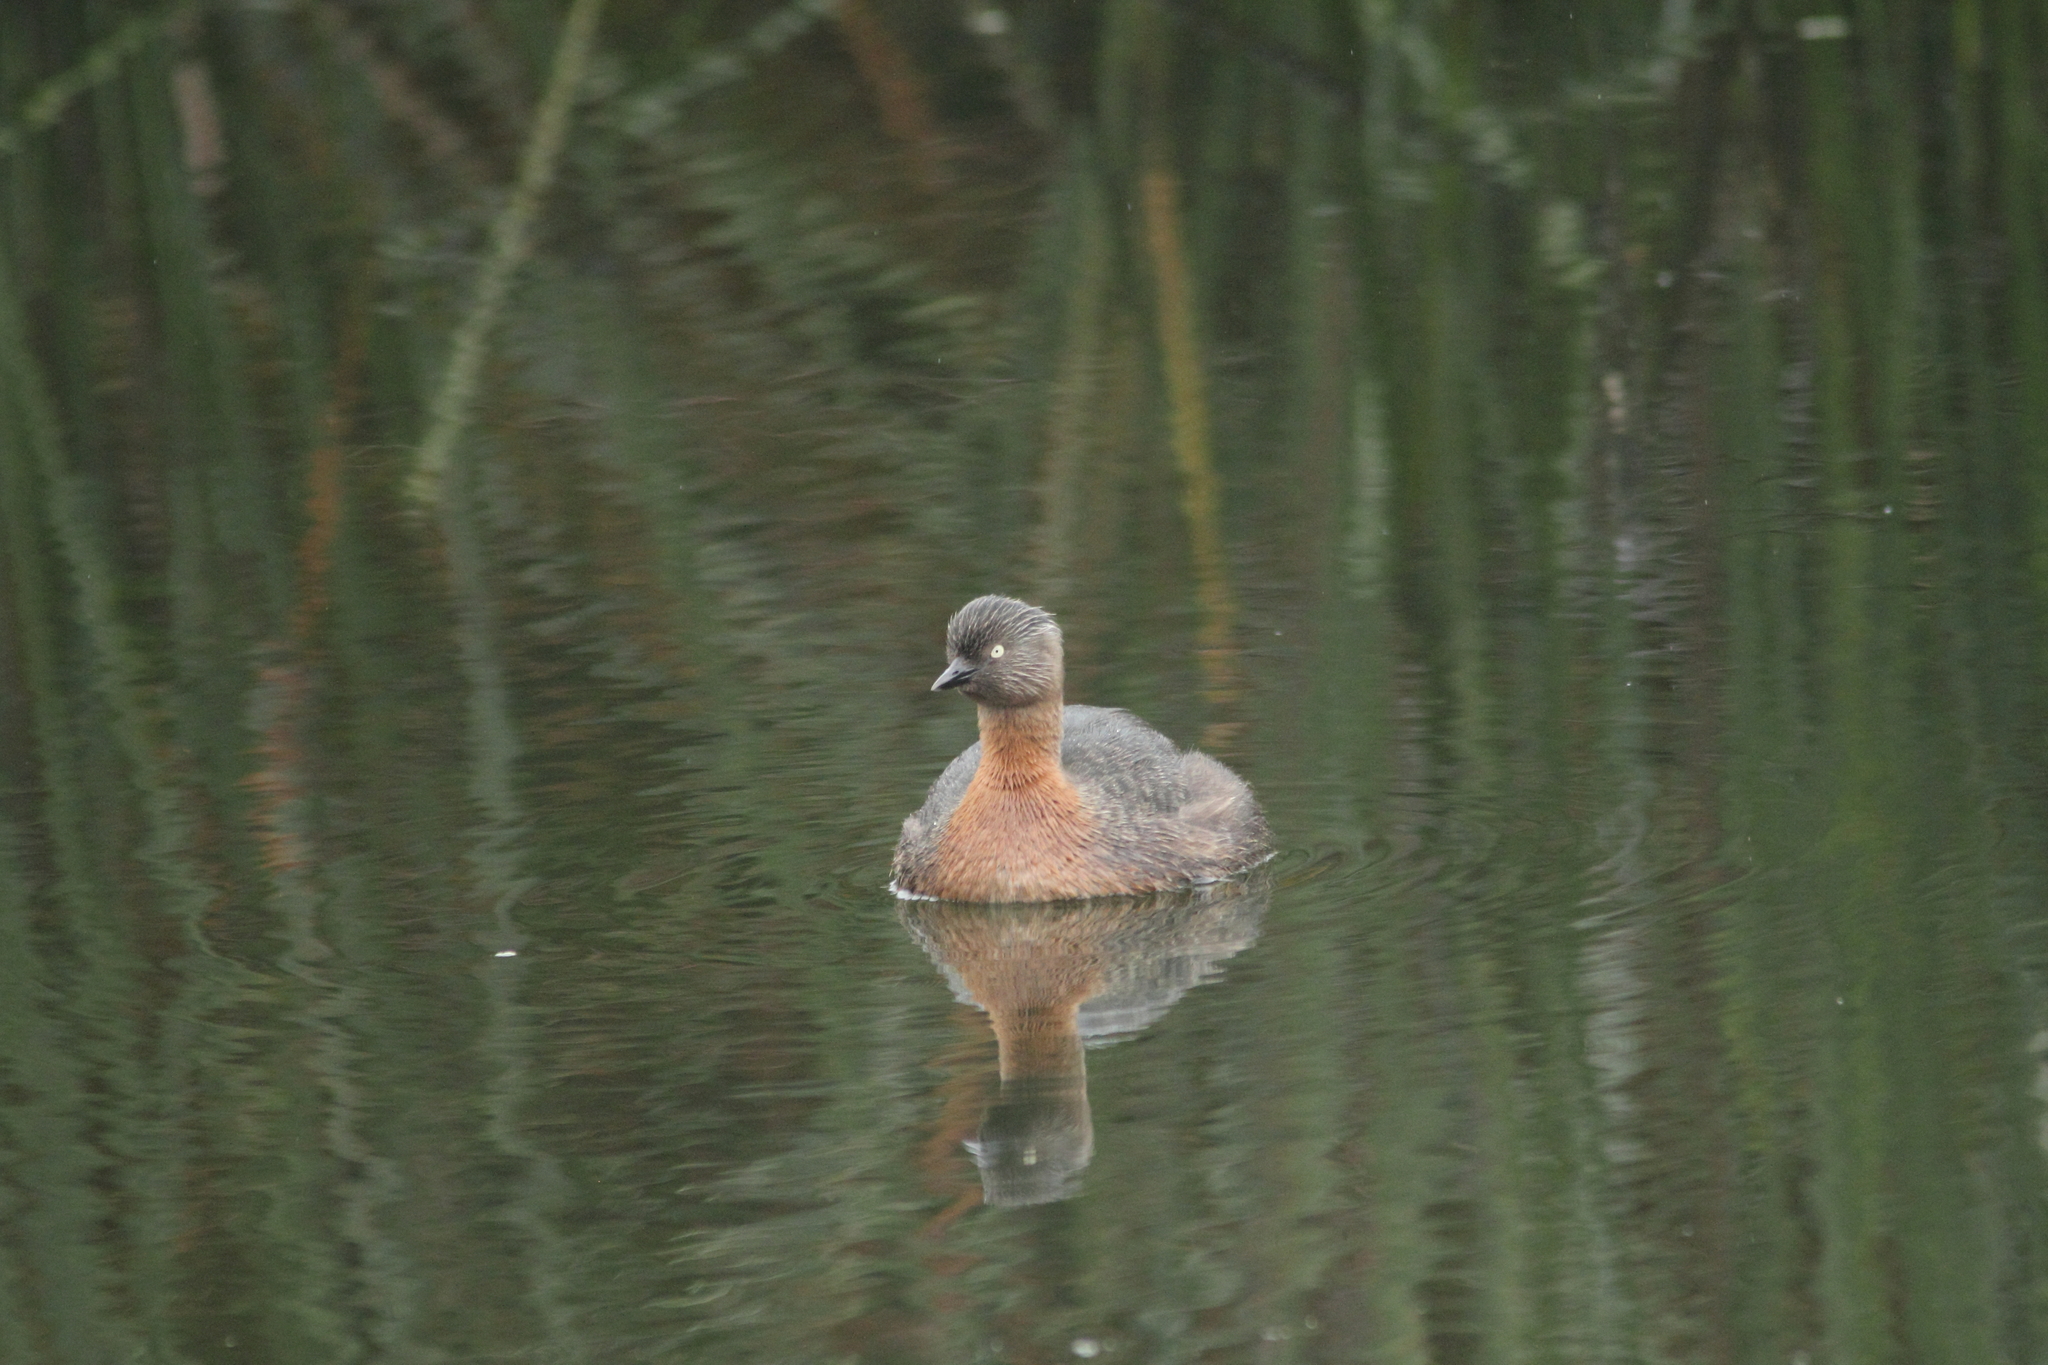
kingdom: Animalia
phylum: Chordata
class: Aves
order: Podicipediformes
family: Podicipedidae
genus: Poliocephalus
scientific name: Poliocephalus rufopectus
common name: New zealand grebe
